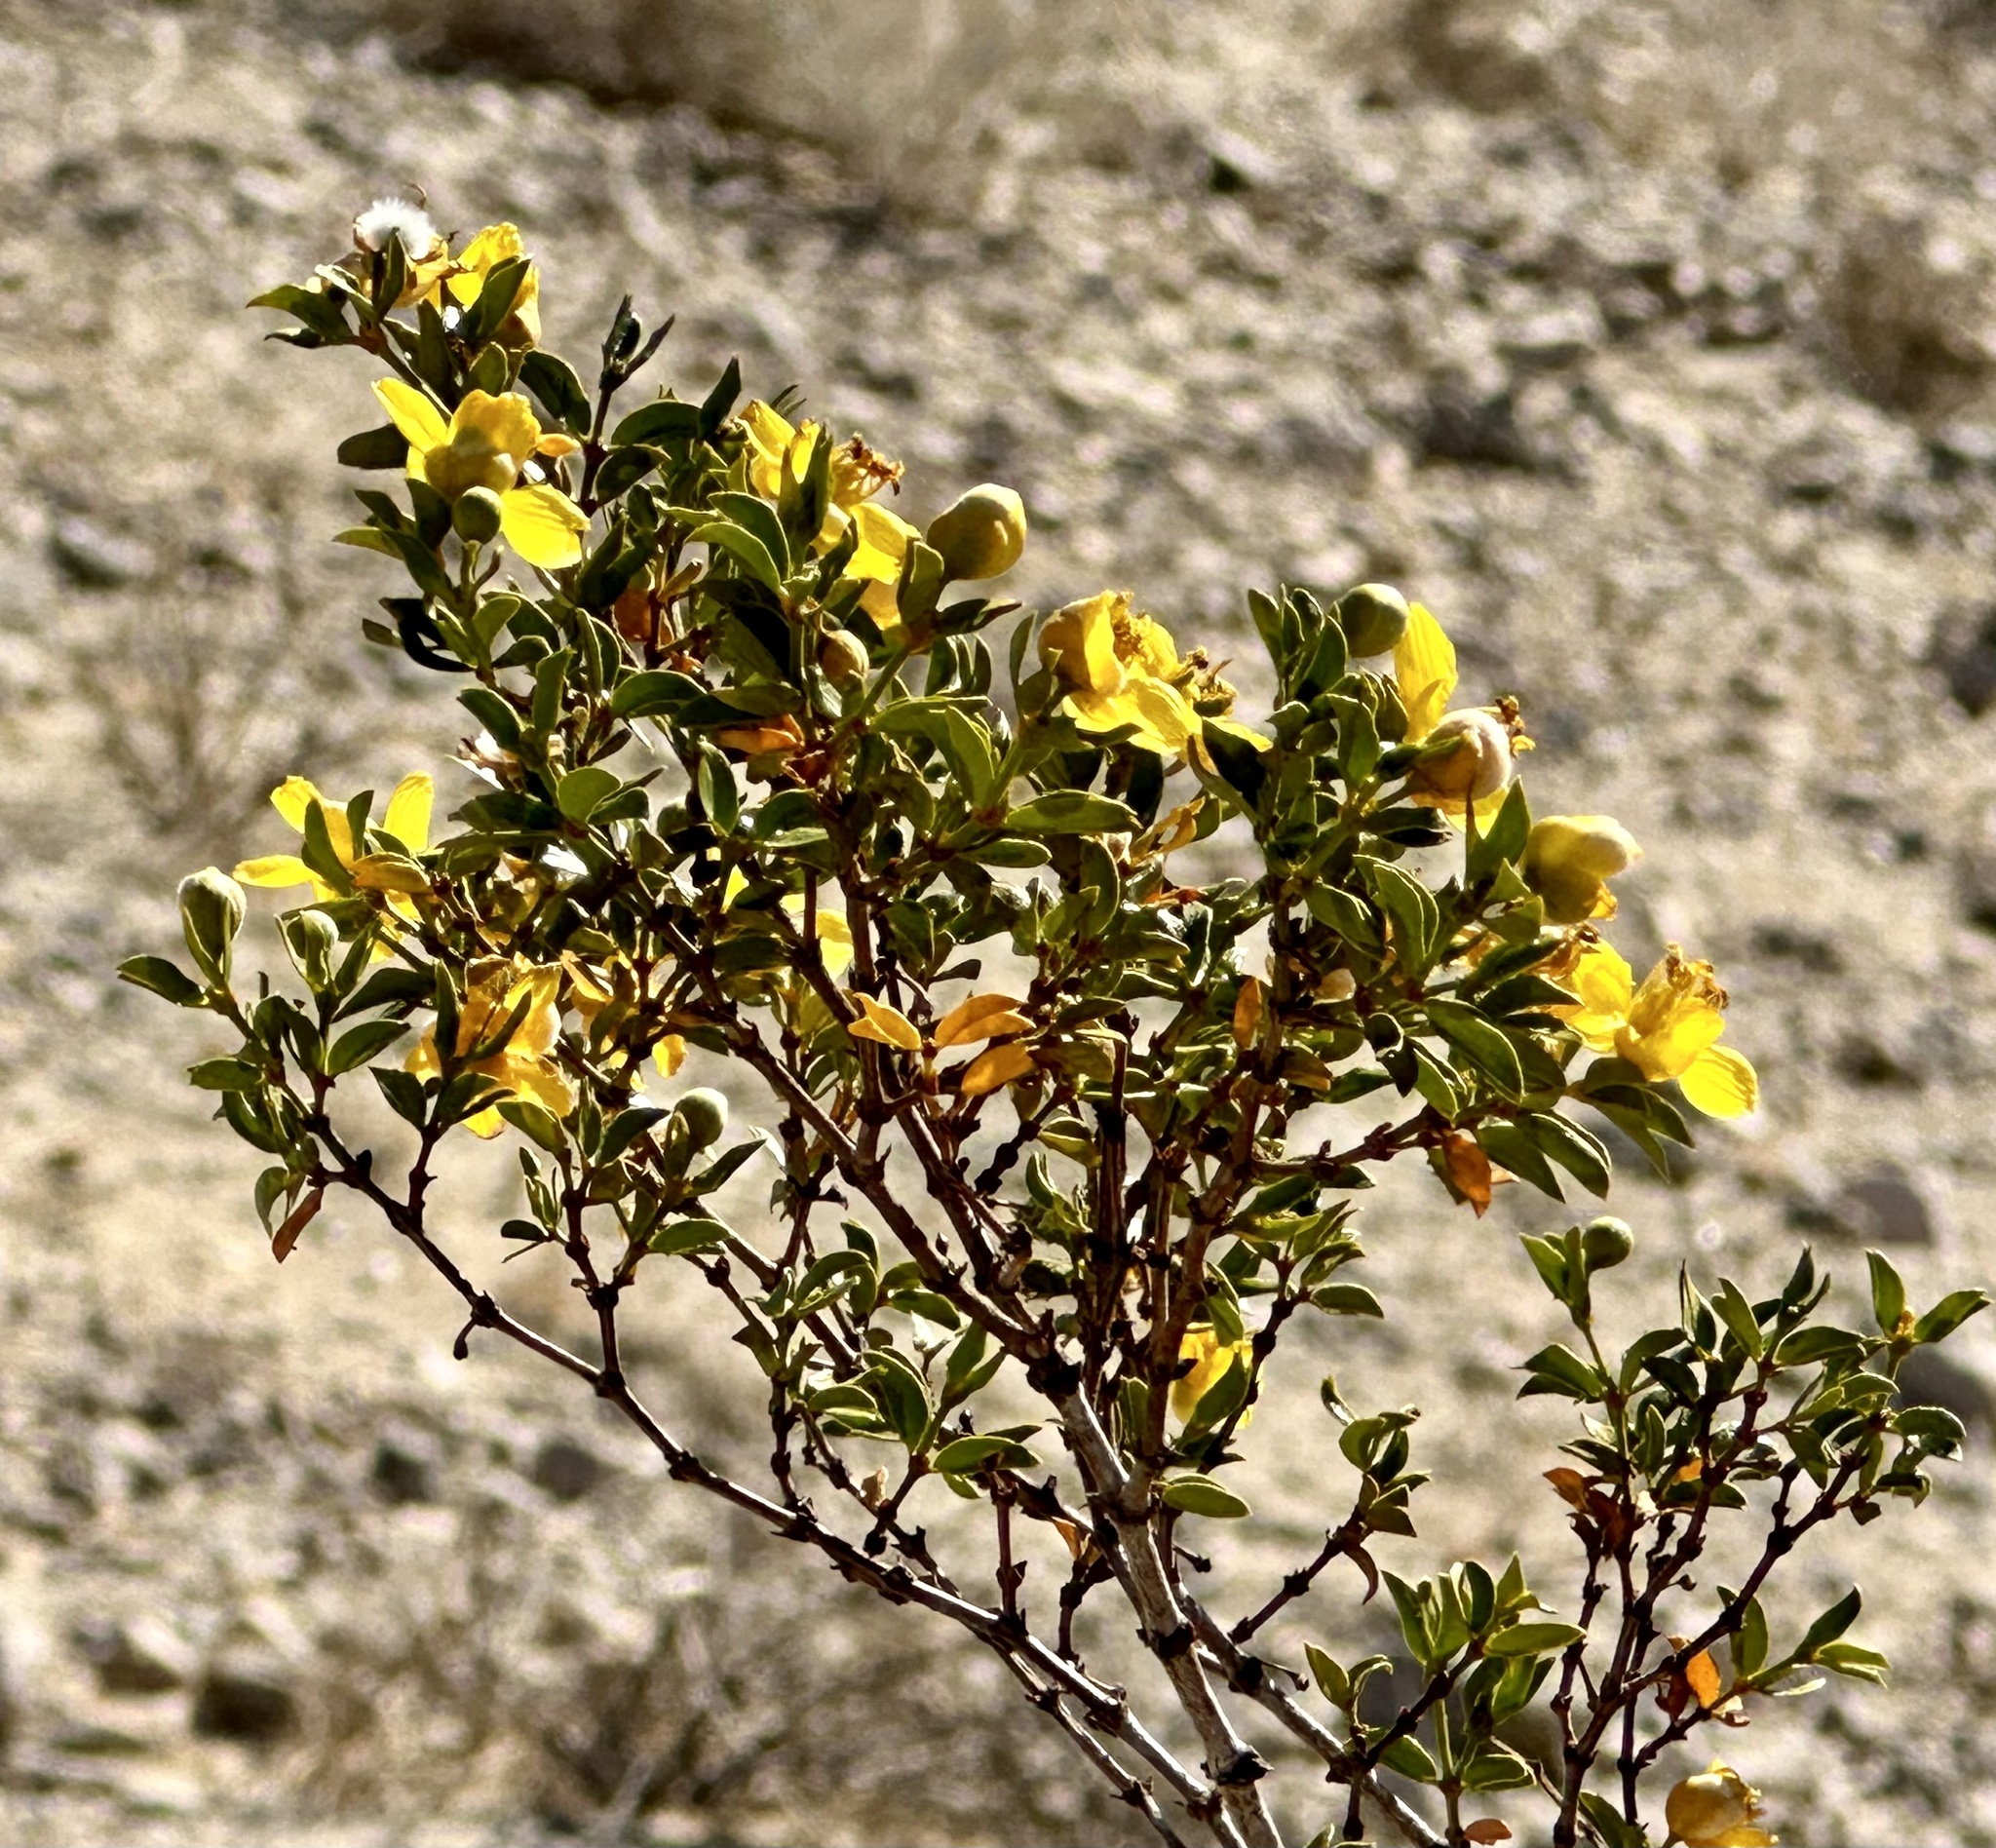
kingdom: Plantae
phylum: Tracheophyta
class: Magnoliopsida
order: Zygophyllales
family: Zygophyllaceae
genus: Larrea
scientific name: Larrea tridentata
